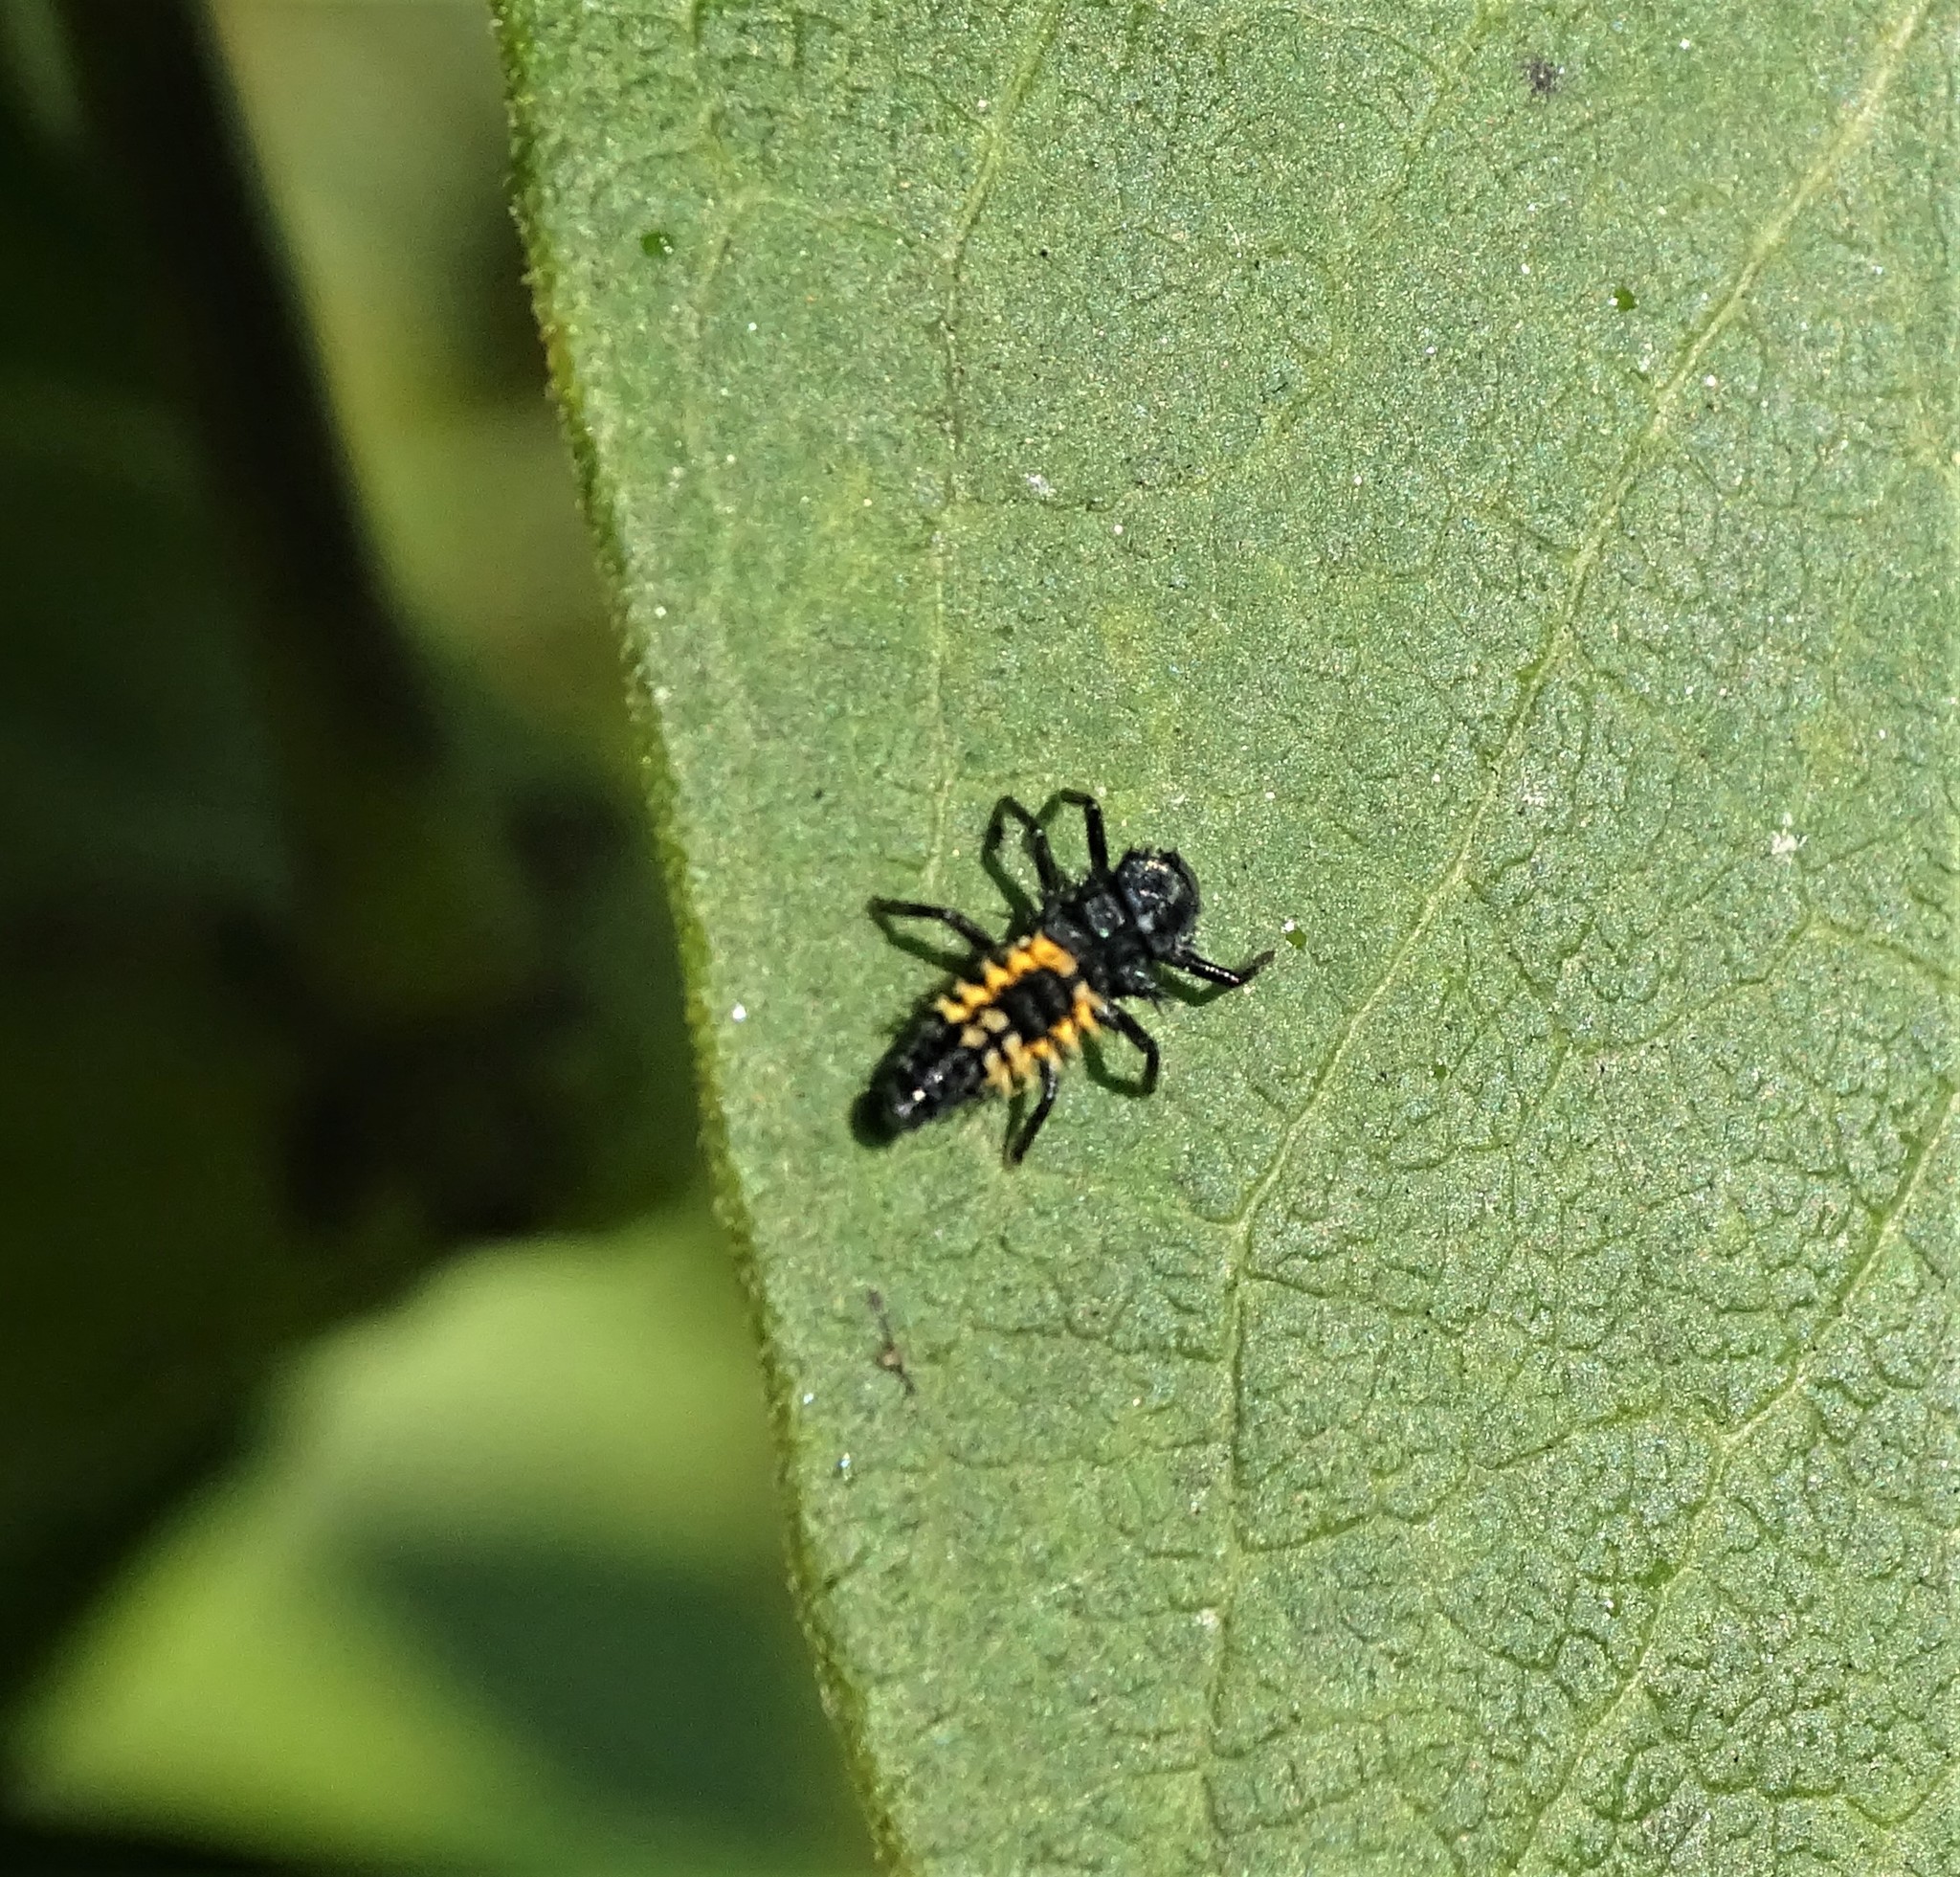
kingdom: Animalia
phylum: Arthropoda
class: Insecta
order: Coleoptera
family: Coccinellidae
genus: Harmonia
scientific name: Harmonia axyridis
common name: Harlequin ladybird
